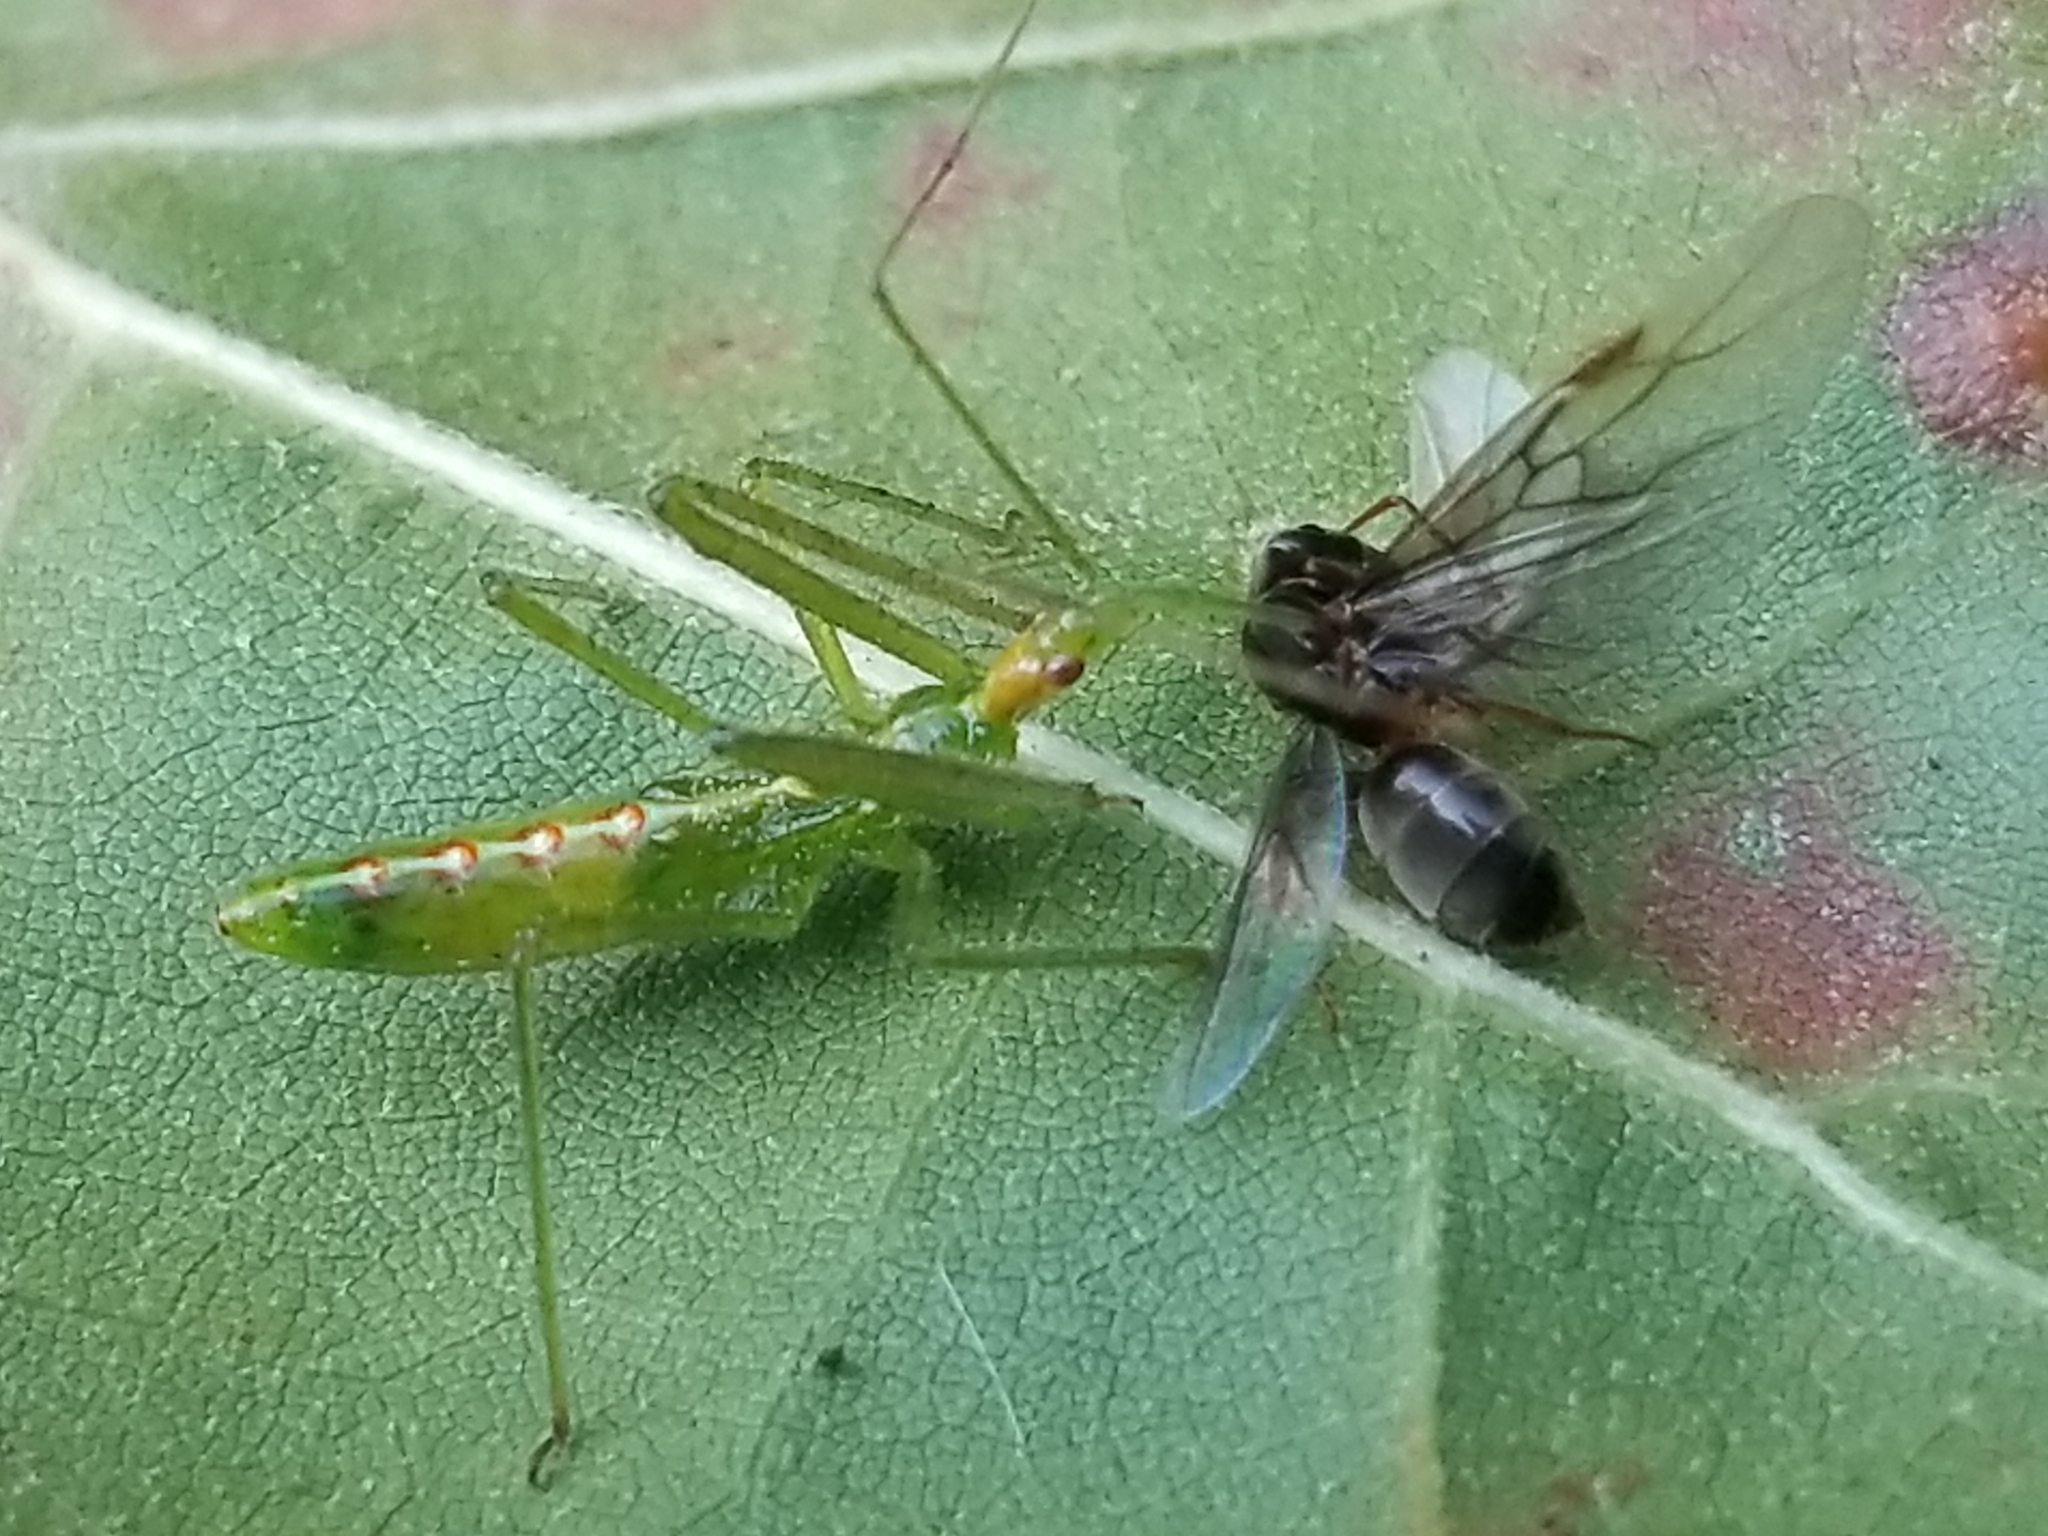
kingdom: Animalia
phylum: Arthropoda
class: Insecta
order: Hemiptera
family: Reduviidae
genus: Zelus
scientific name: Zelus luridus
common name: Pale green assassin bug
